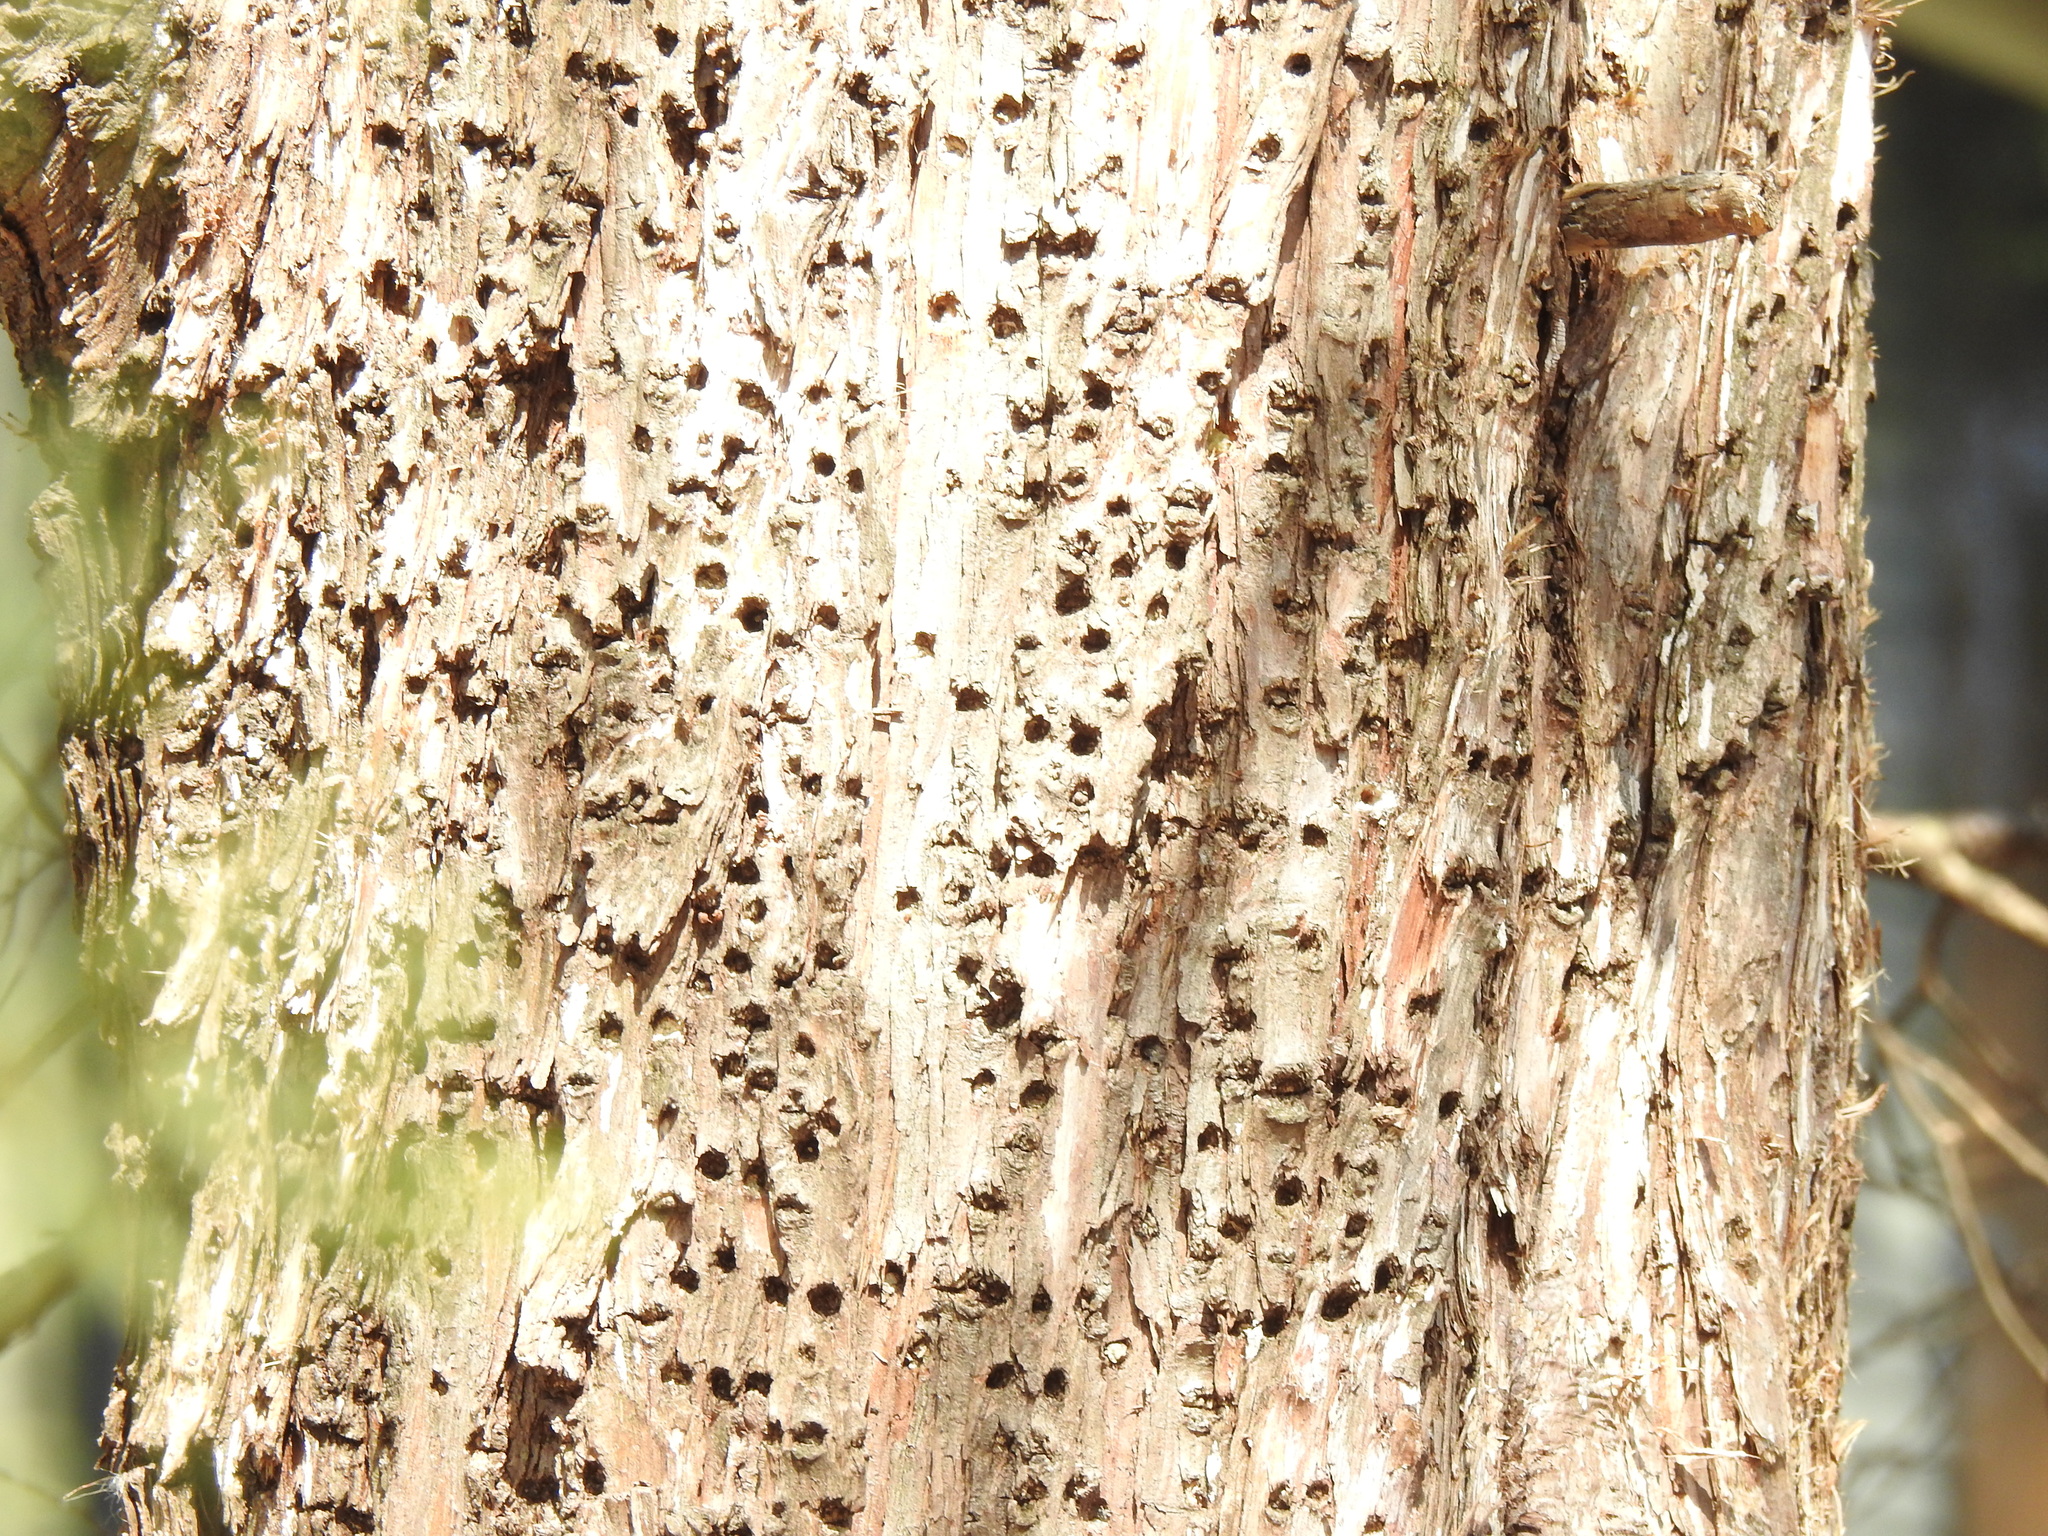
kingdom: Animalia
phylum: Chordata
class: Aves
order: Piciformes
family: Picidae
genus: Sphyrapicus
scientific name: Sphyrapicus varius
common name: Yellow-bellied sapsucker
